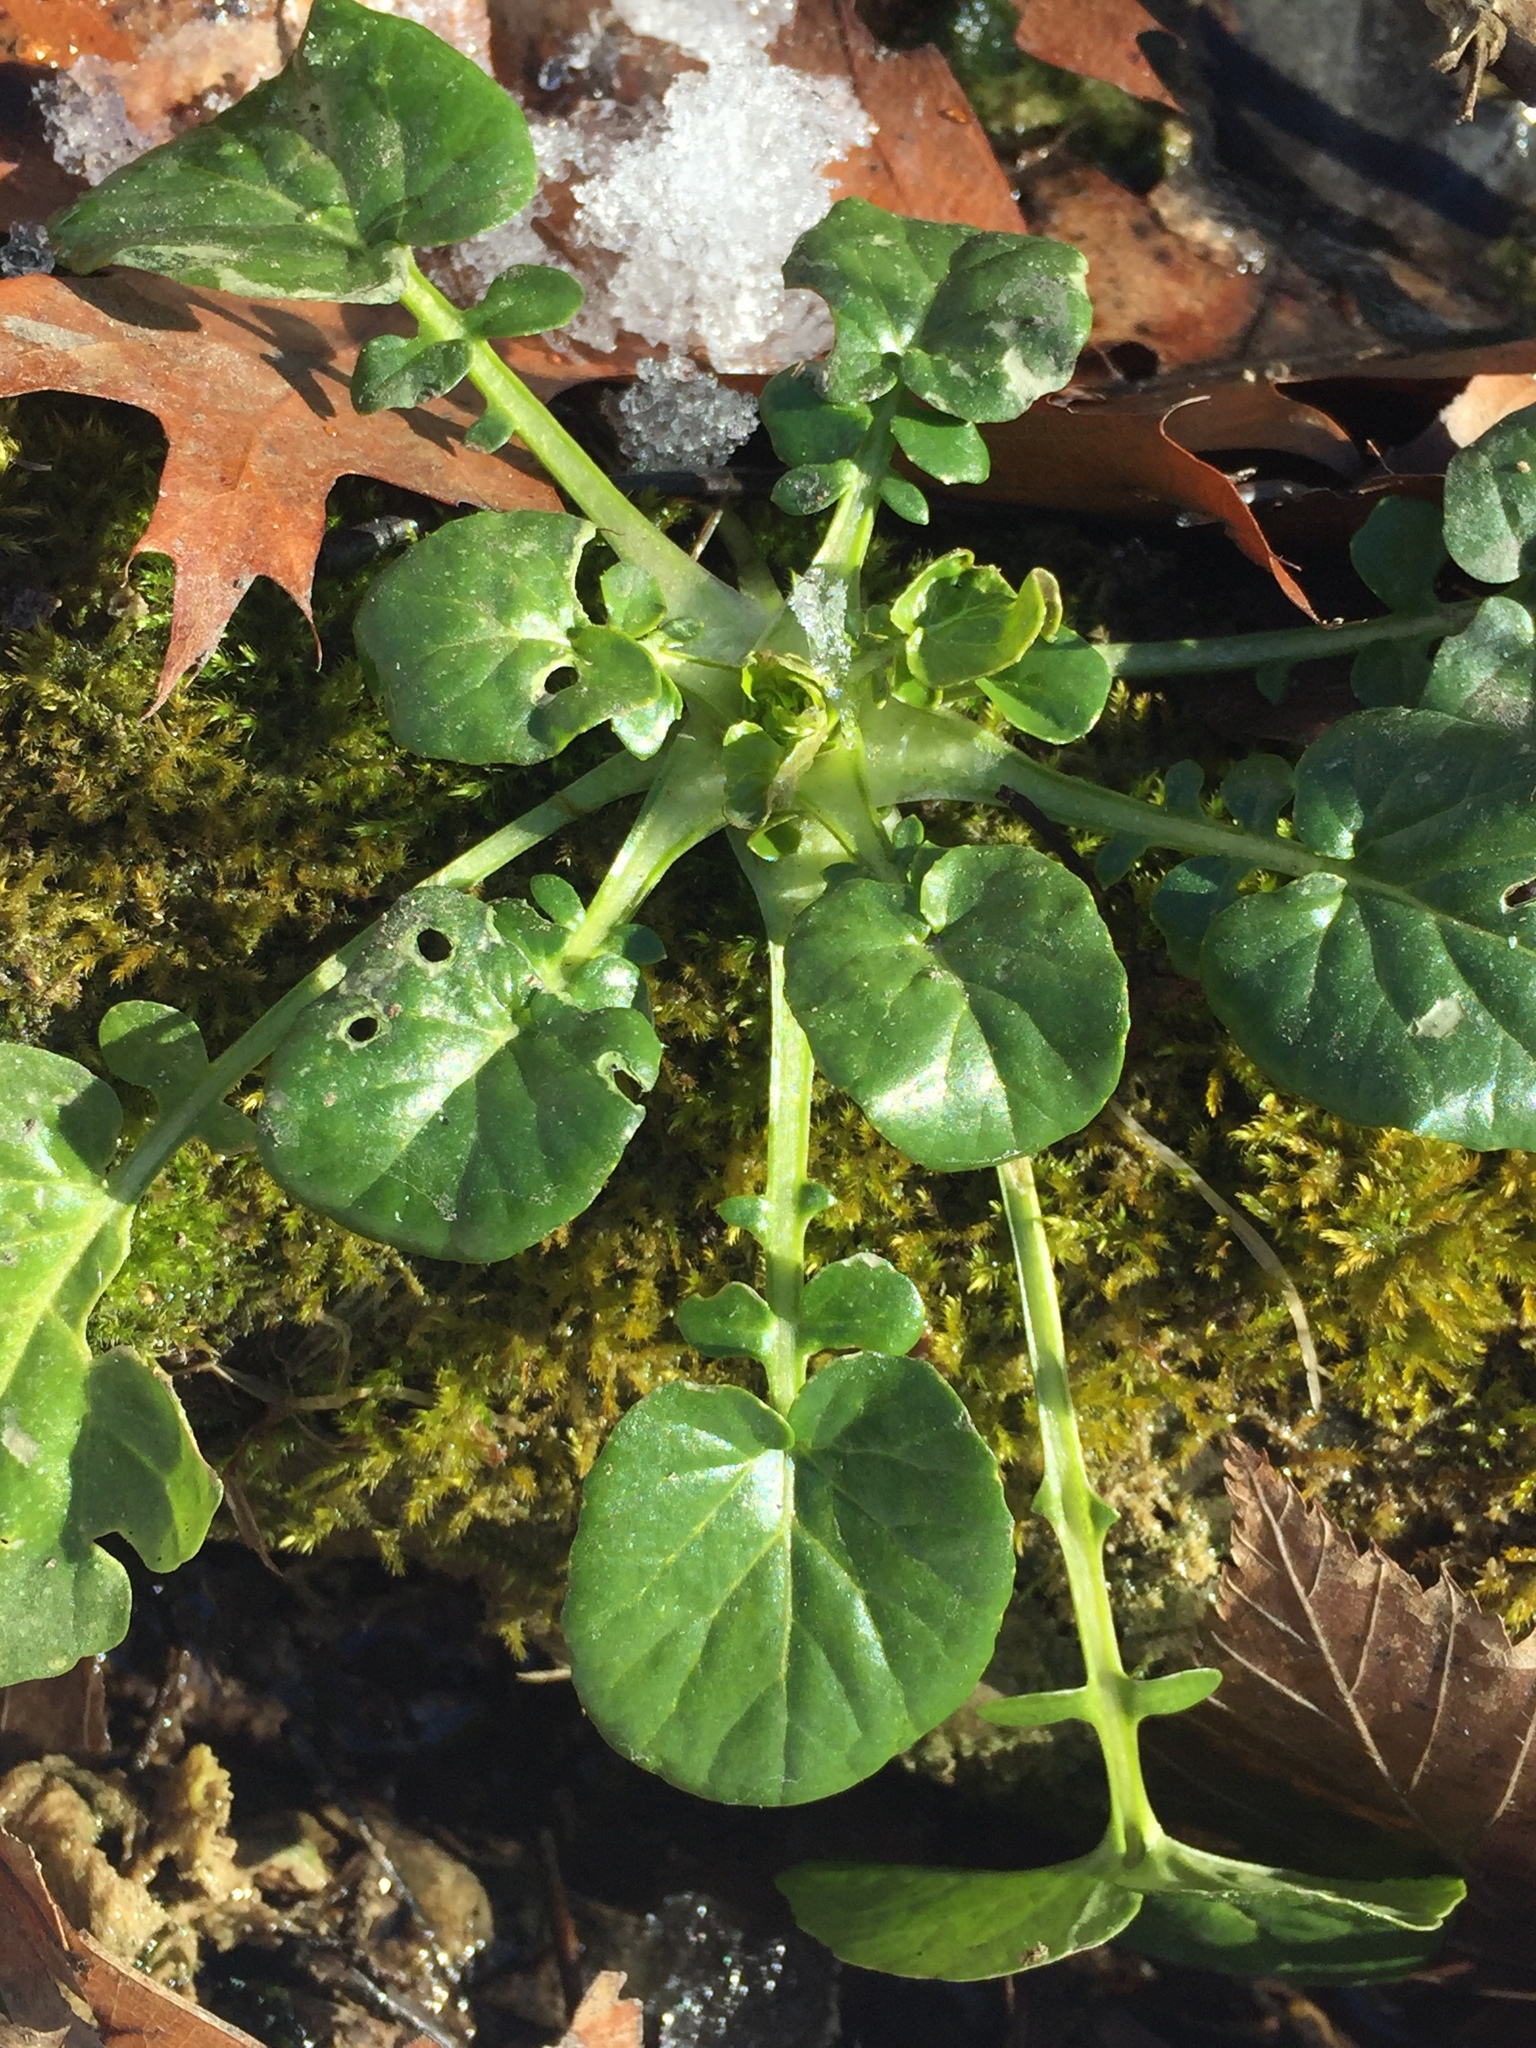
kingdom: Plantae
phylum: Tracheophyta
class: Magnoliopsida
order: Brassicales
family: Brassicaceae
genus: Barbarea
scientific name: Barbarea vulgaris
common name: Cressy-greens
